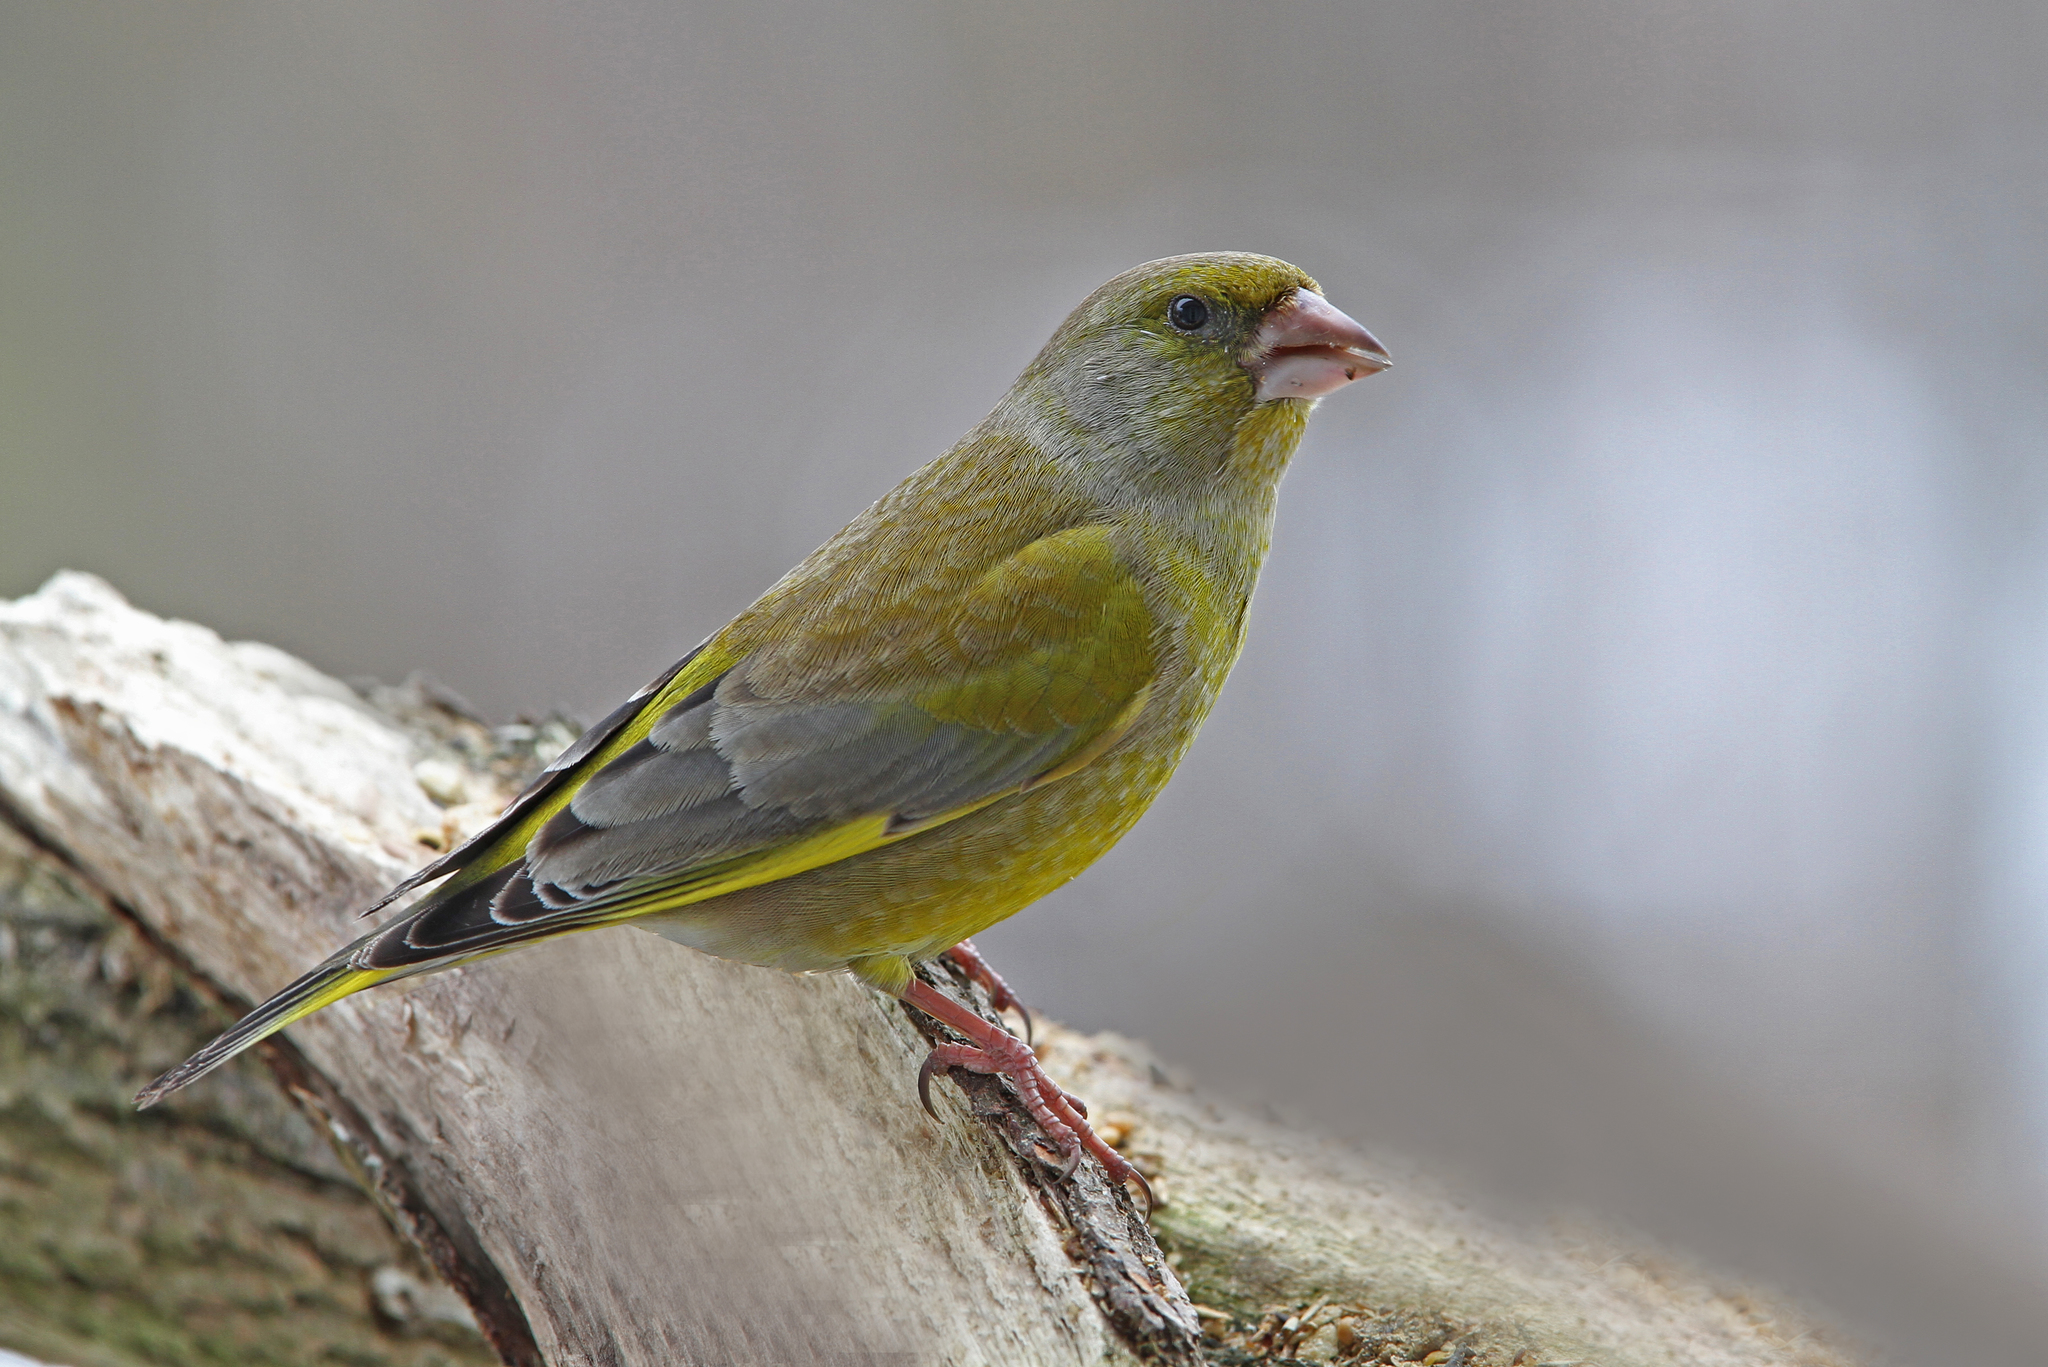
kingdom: Plantae
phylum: Tracheophyta
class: Liliopsida
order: Poales
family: Poaceae
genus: Chloris
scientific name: Chloris chloris
